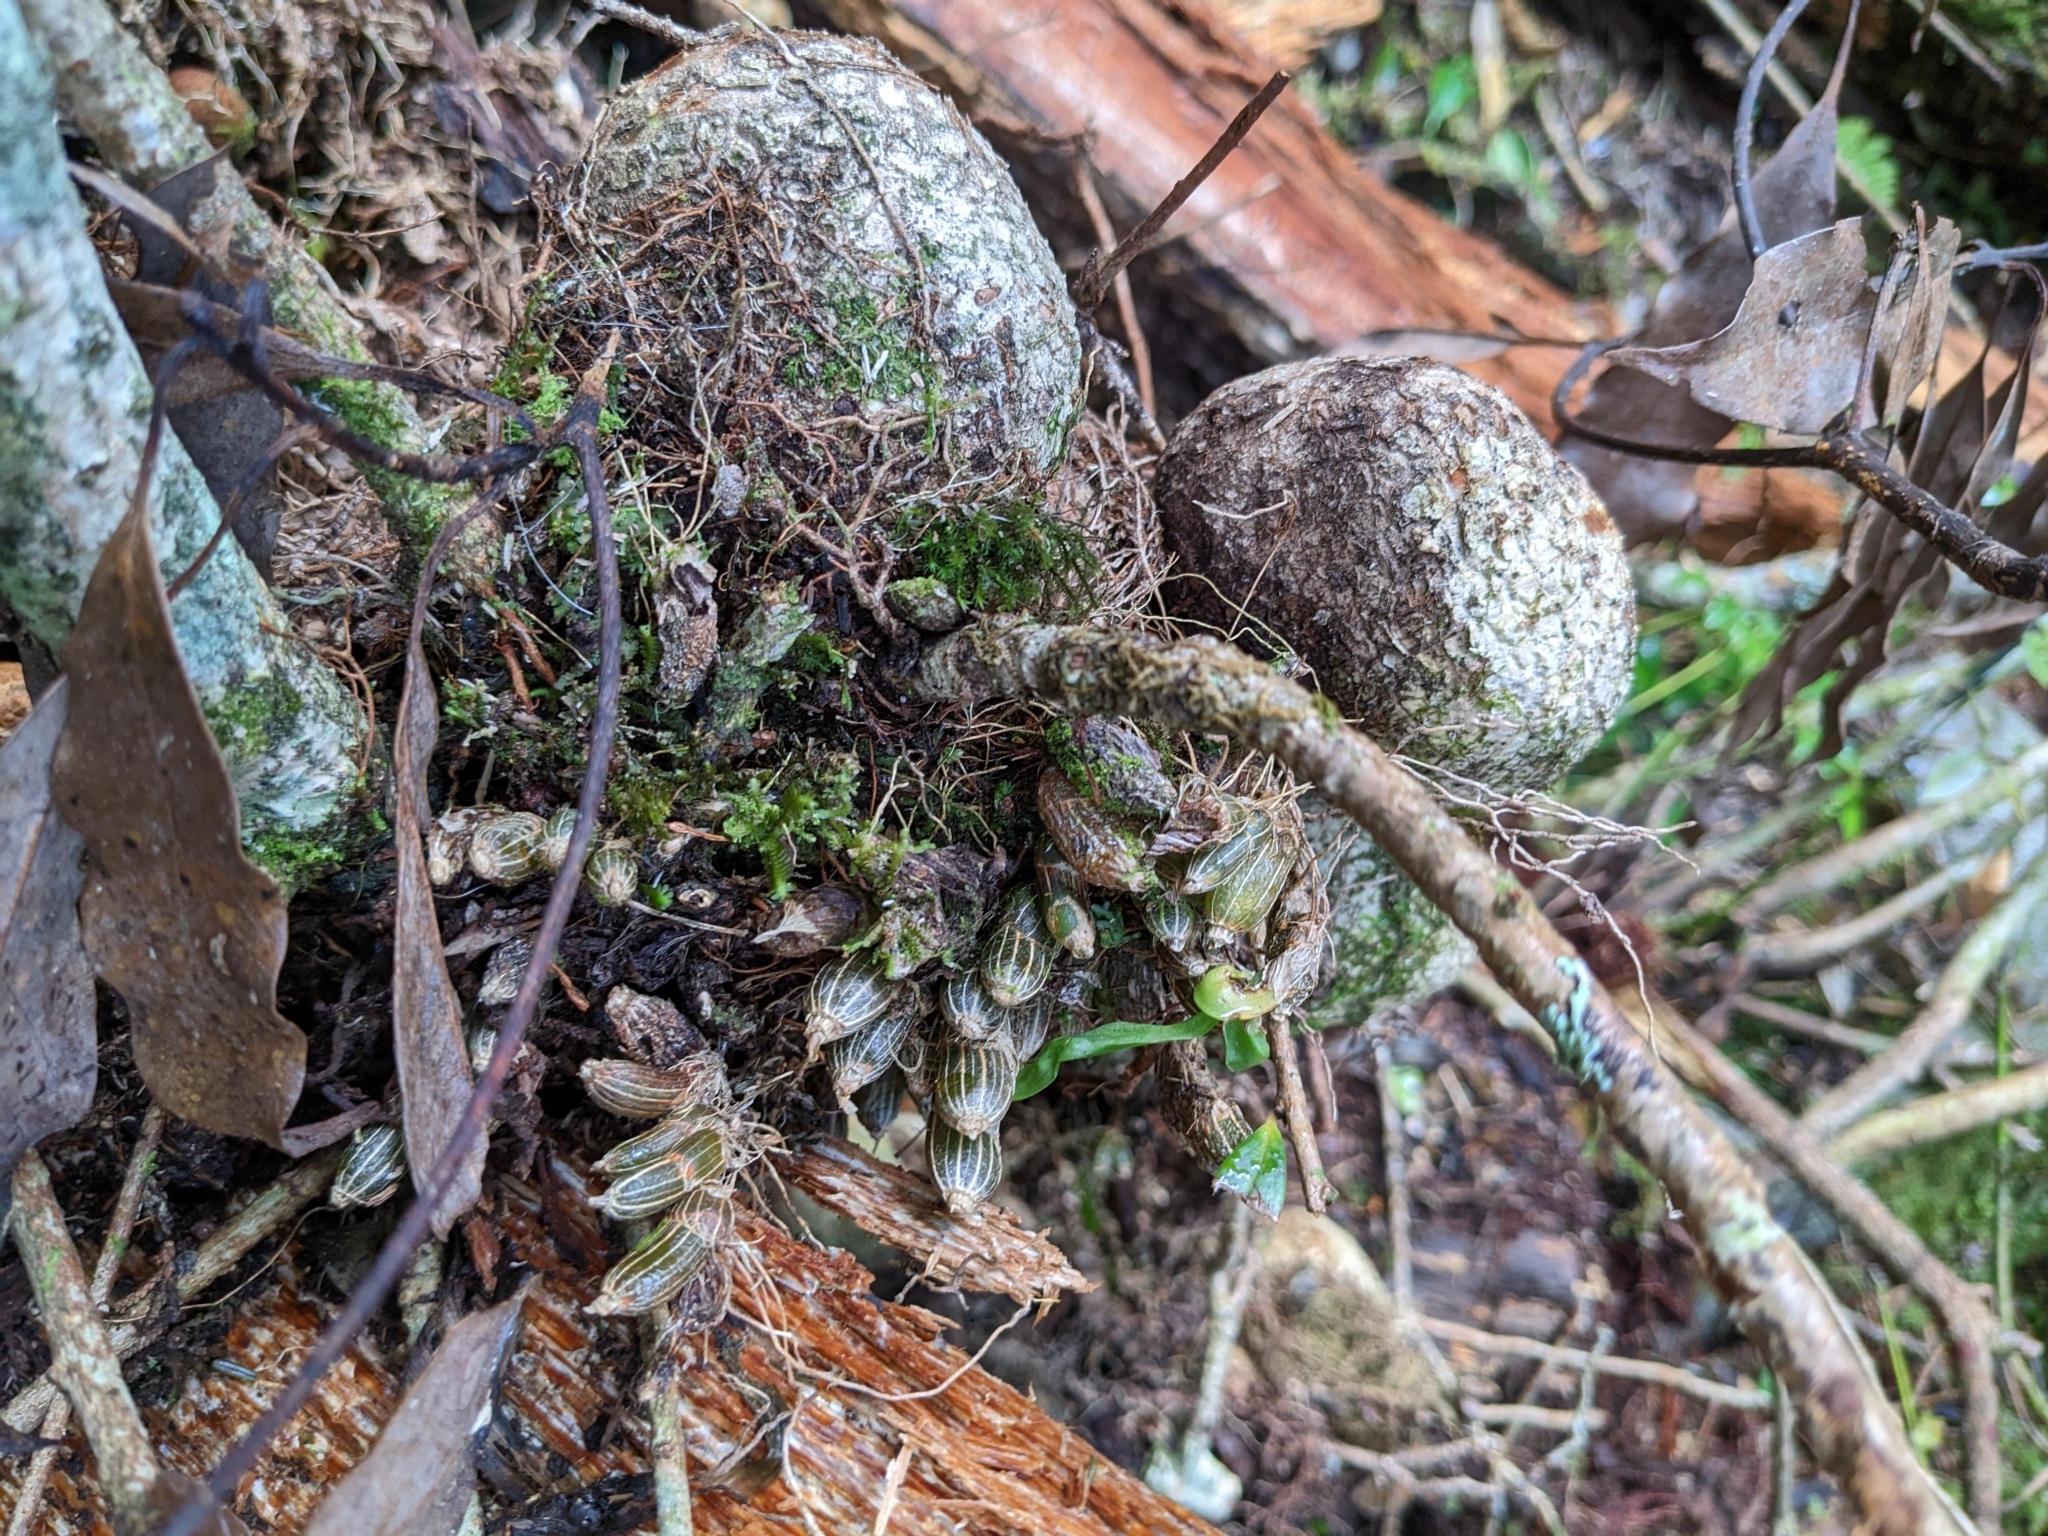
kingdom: Plantae
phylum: Tracheophyta
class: Liliopsida
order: Asparagales
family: Orchidaceae
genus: Pinalia
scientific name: Pinalia japonica
